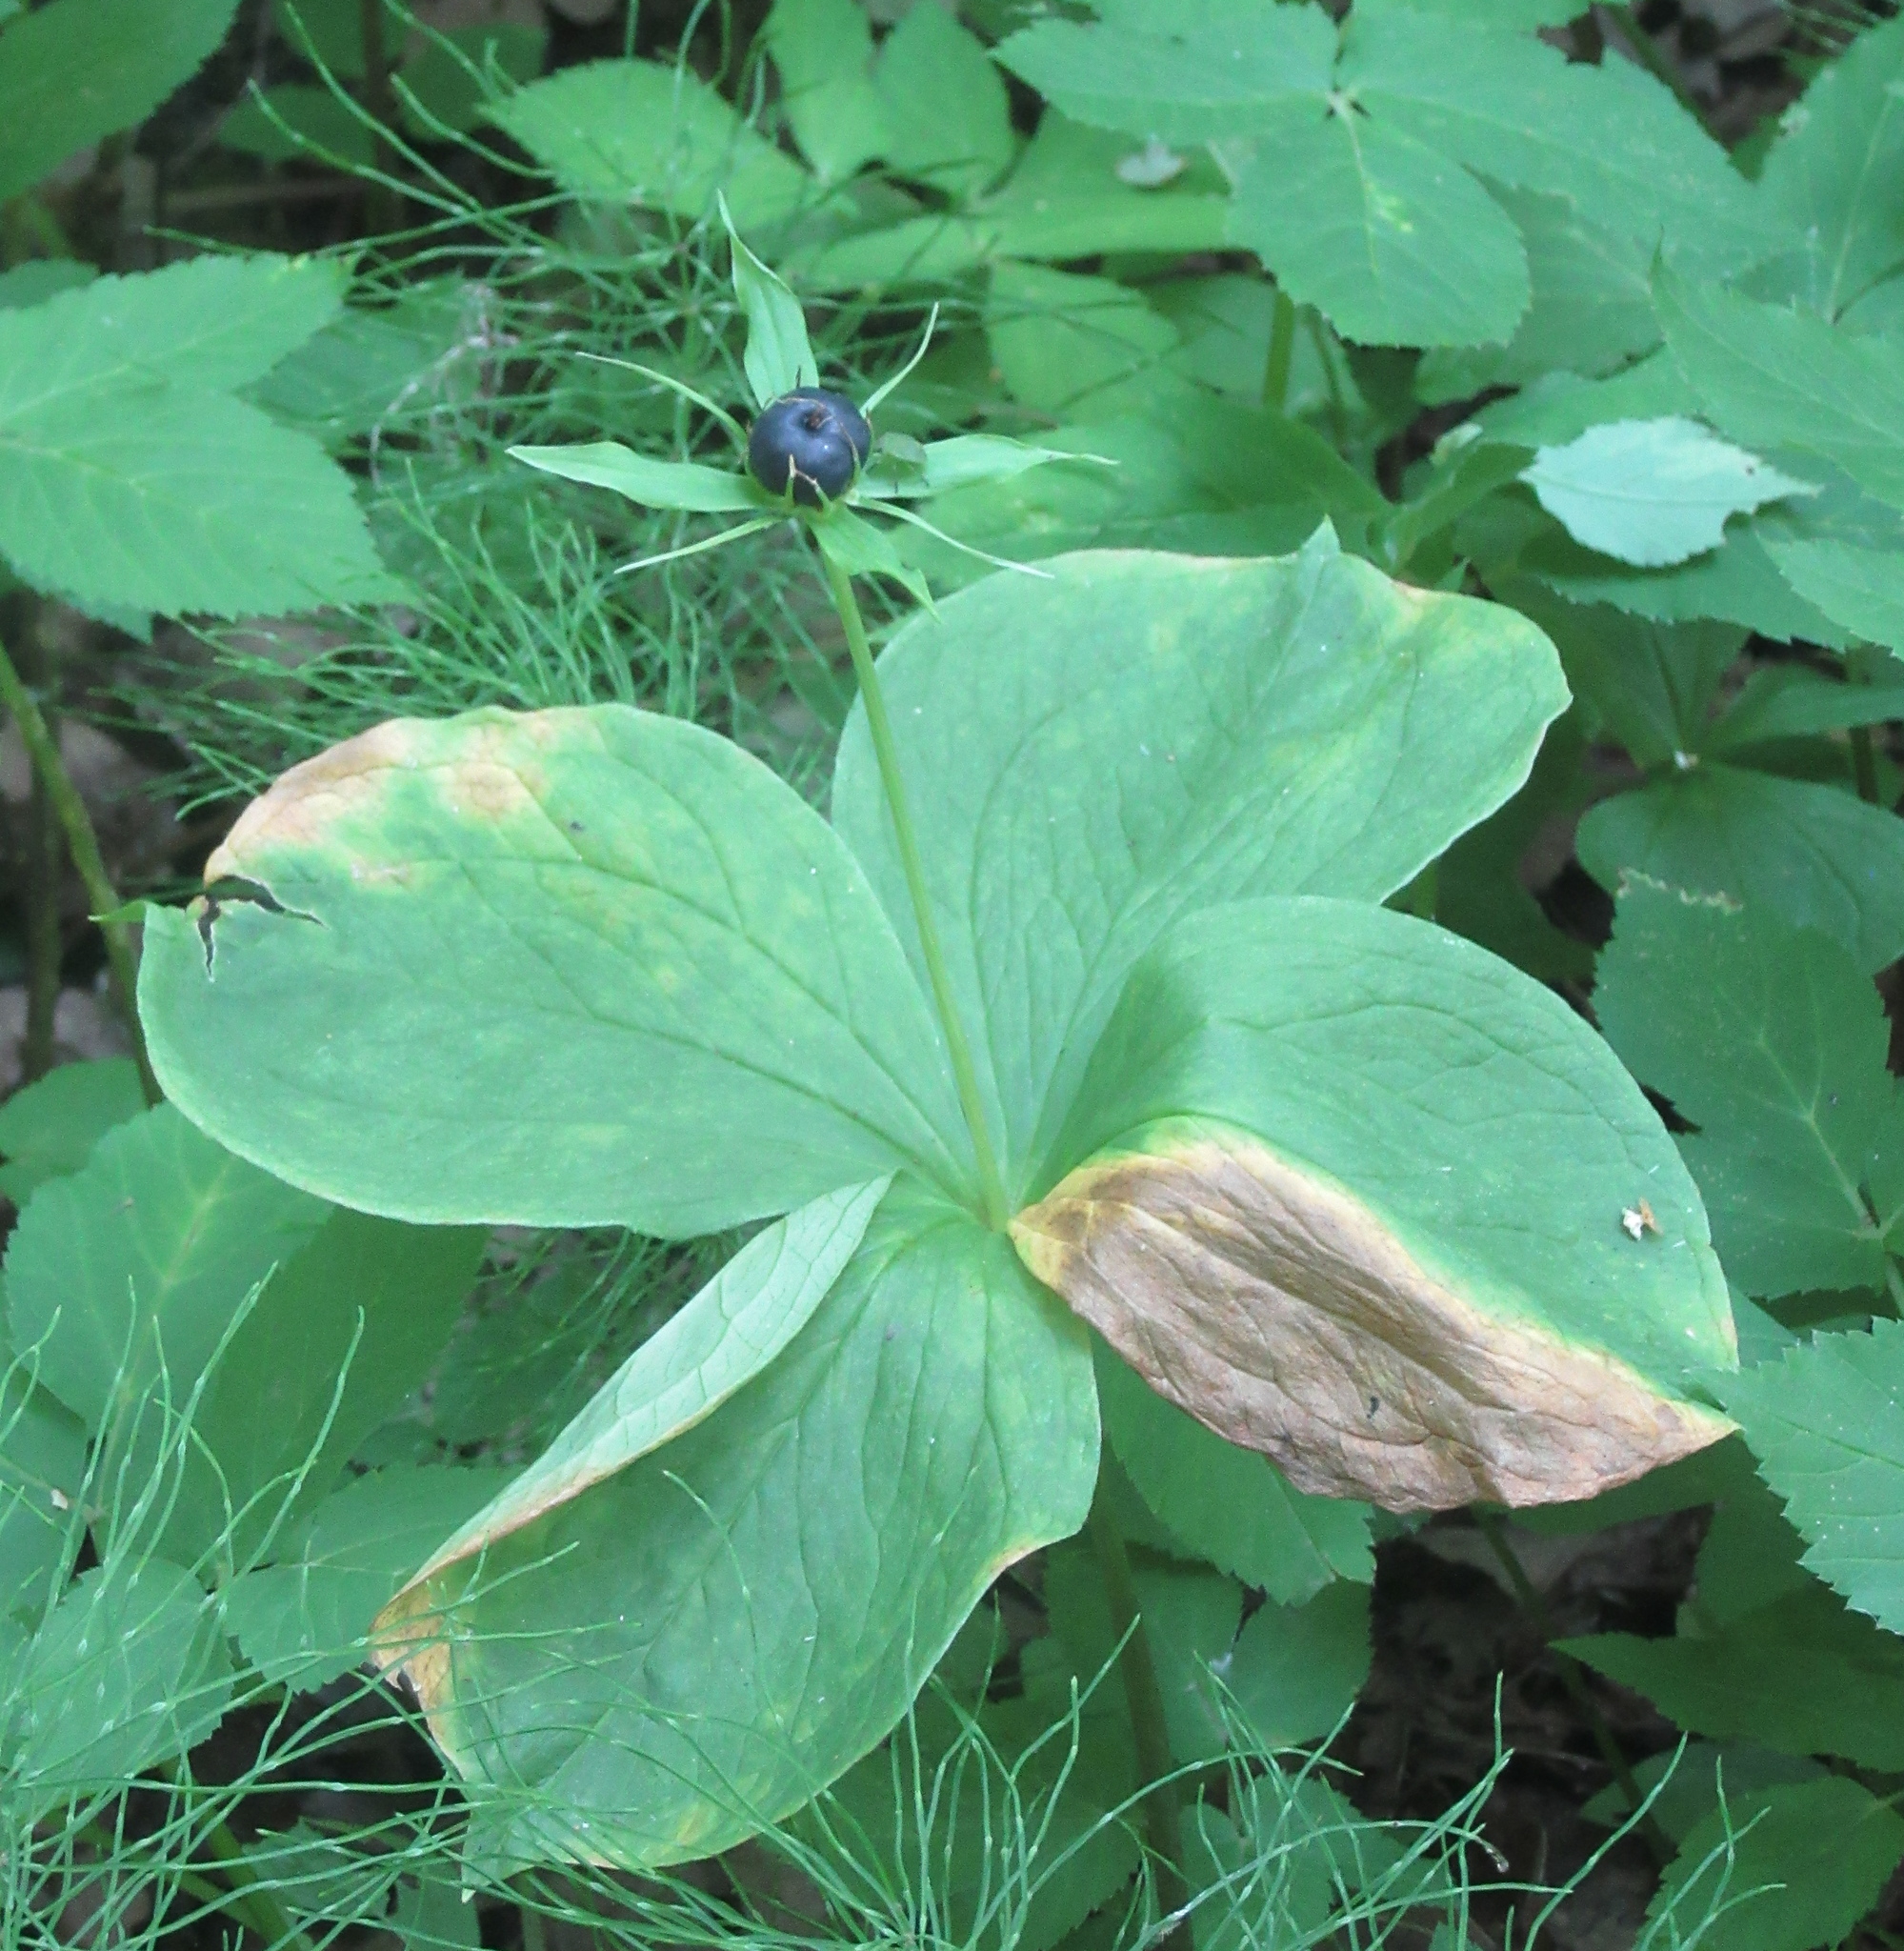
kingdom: Plantae
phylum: Tracheophyta
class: Liliopsida
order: Liliales
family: Melanthiaceae
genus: Paris
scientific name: Paris quadrifolia
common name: Herb-paris
